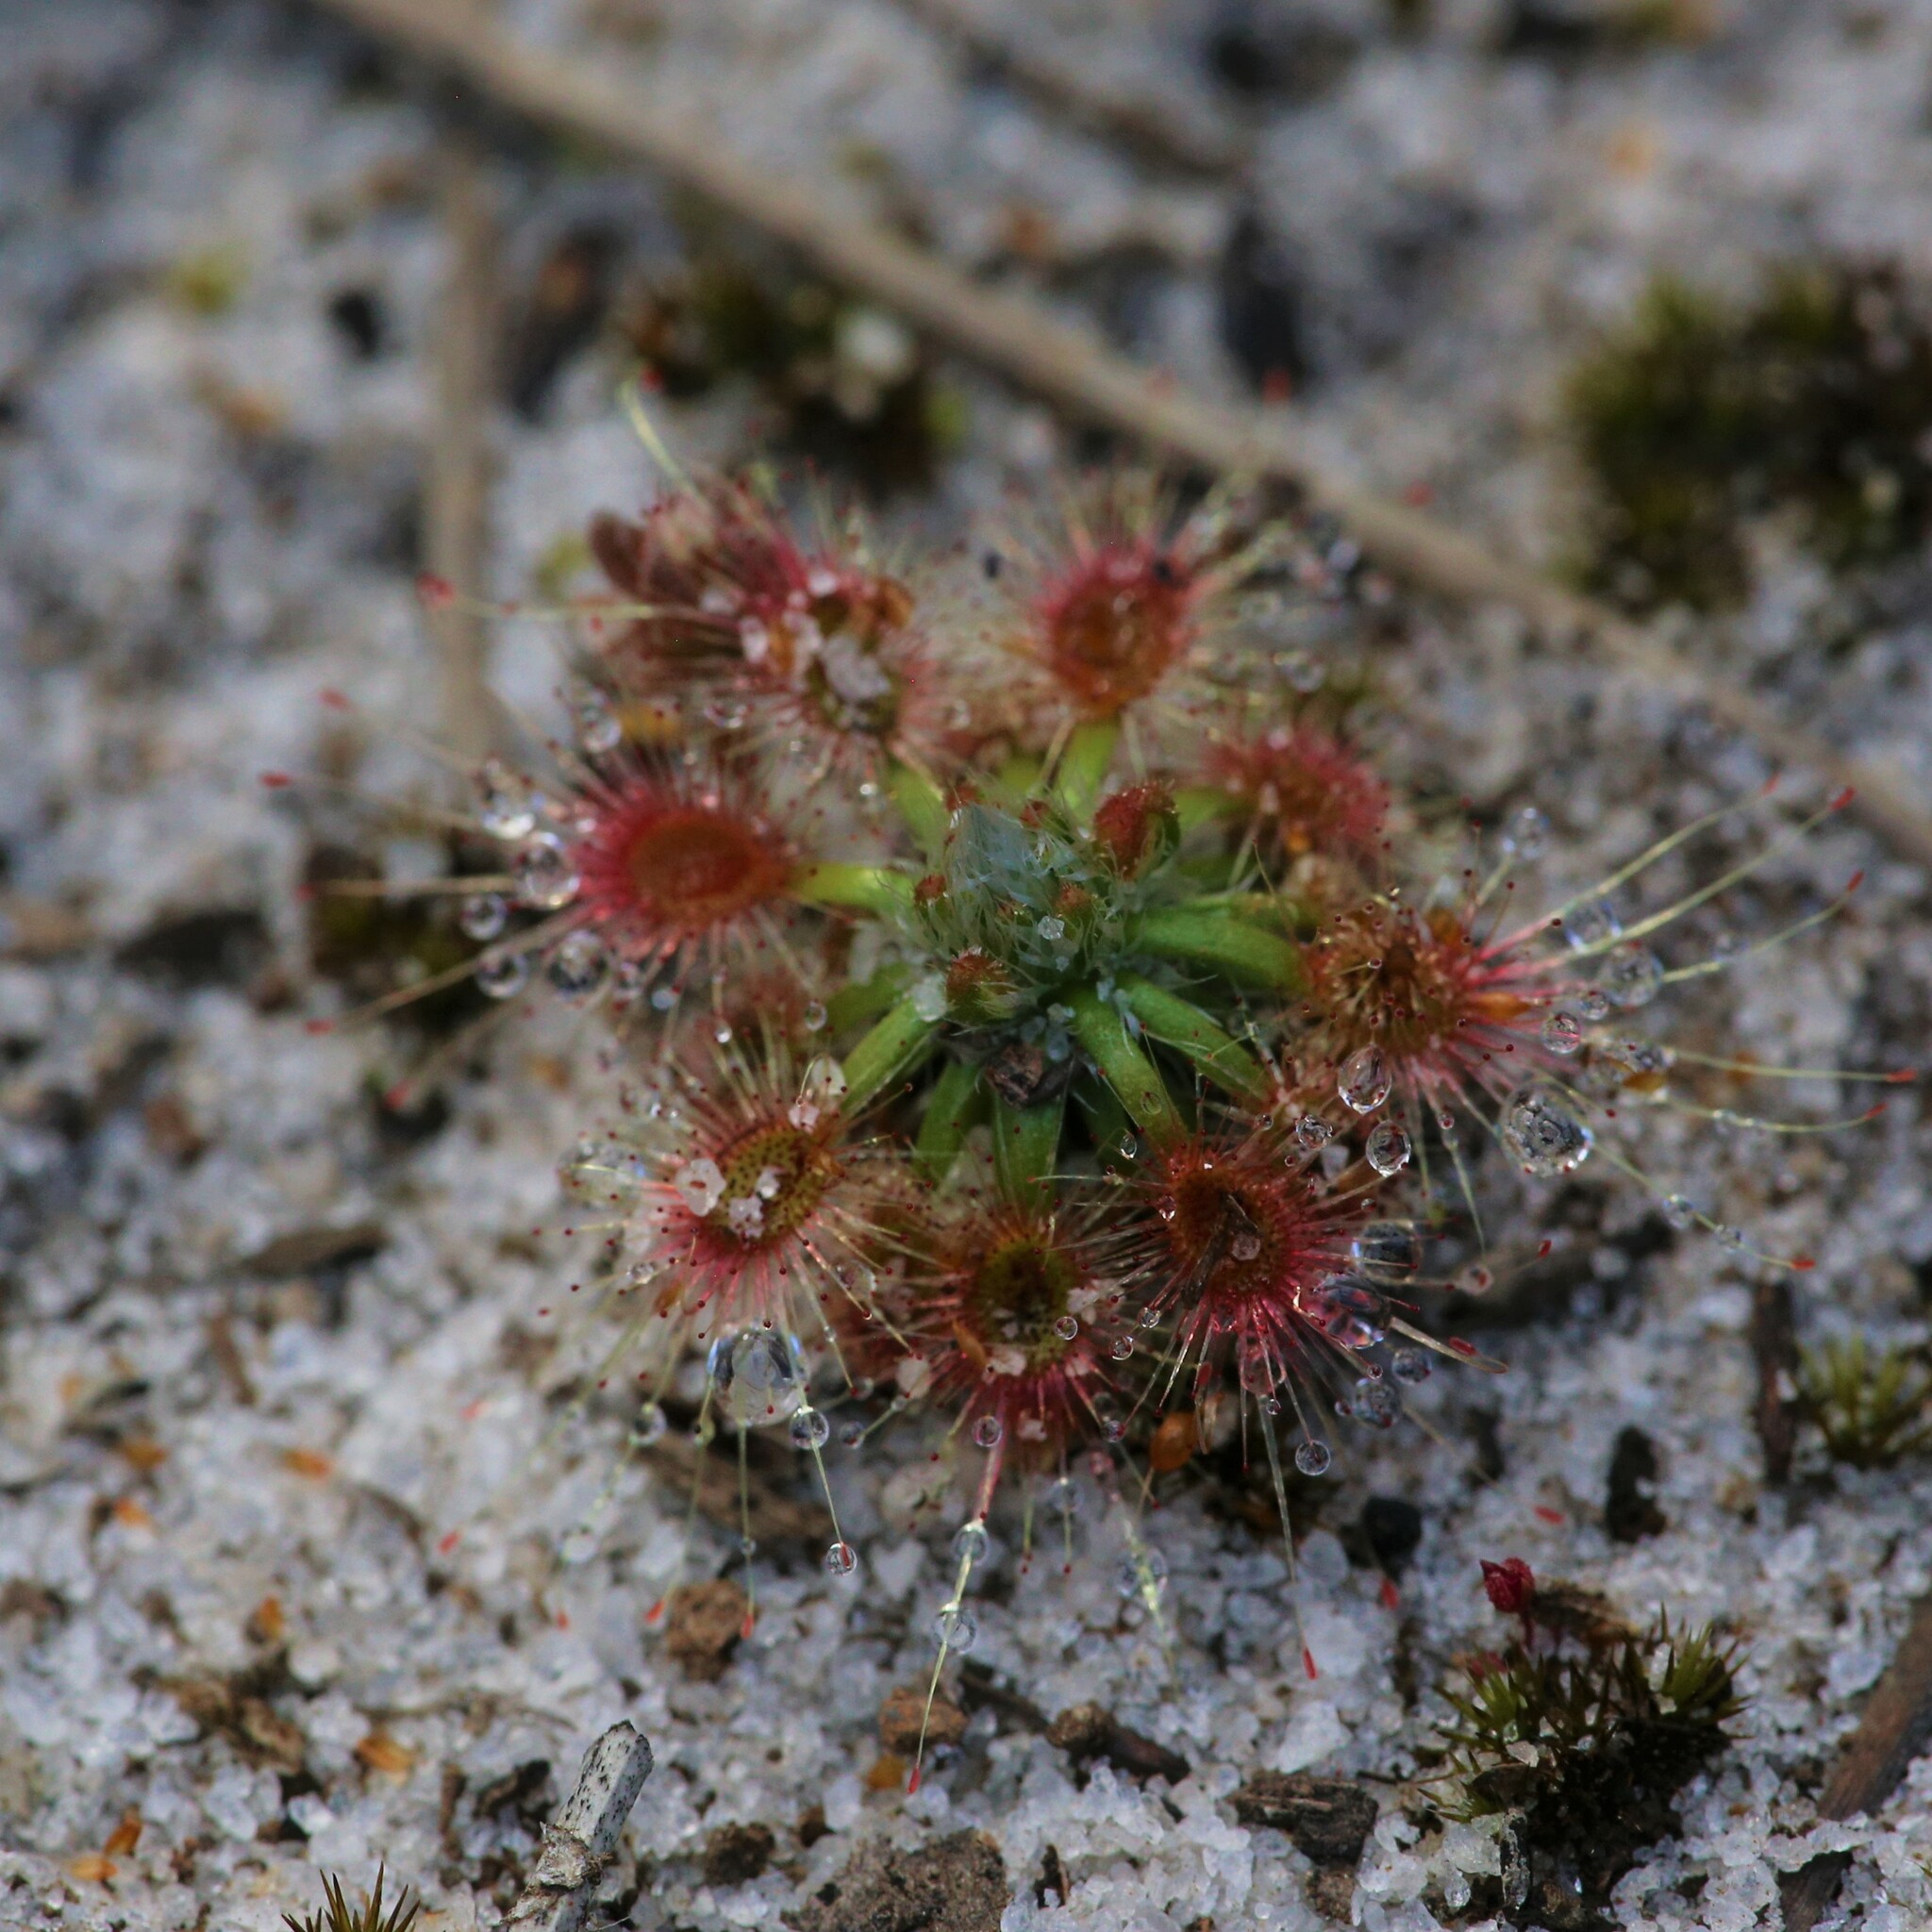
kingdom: Plantae
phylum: Tracheophyta
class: Magnoliopsida
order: Caryophyllales
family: Droseraceae
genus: Drosera
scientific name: Drosera sewelliae
